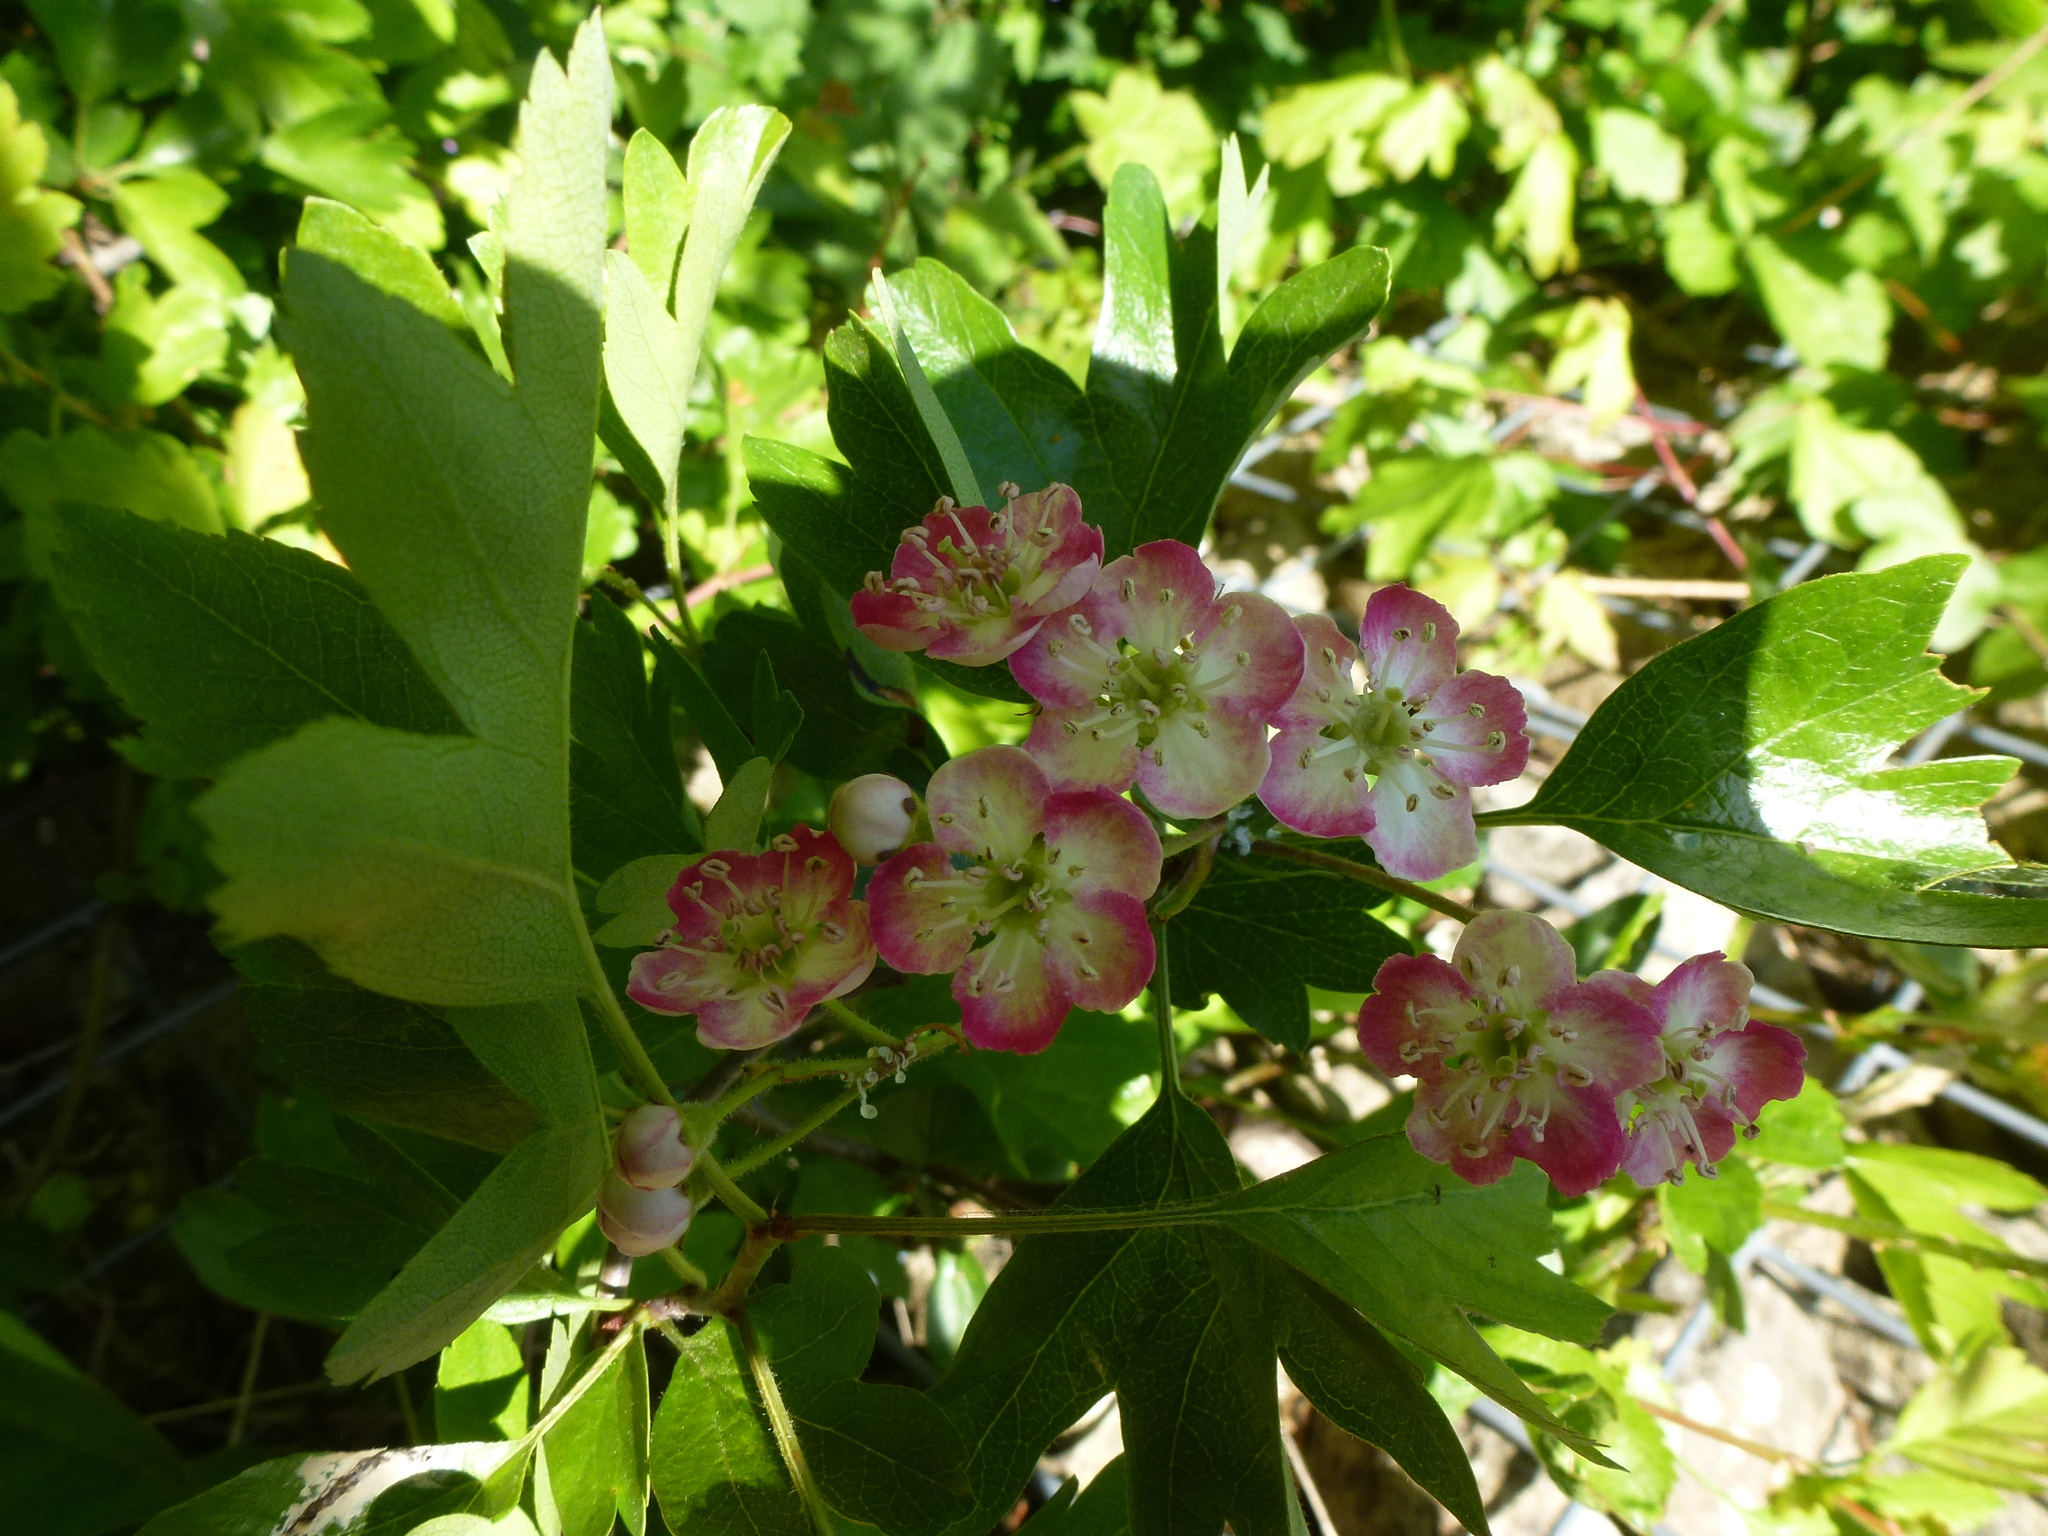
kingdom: Plantae
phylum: Tracheophyta
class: Magnoliopsida
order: Rosales
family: Rosaceae
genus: Crataegus
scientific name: Crataegus monogyna
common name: Hawthorn
